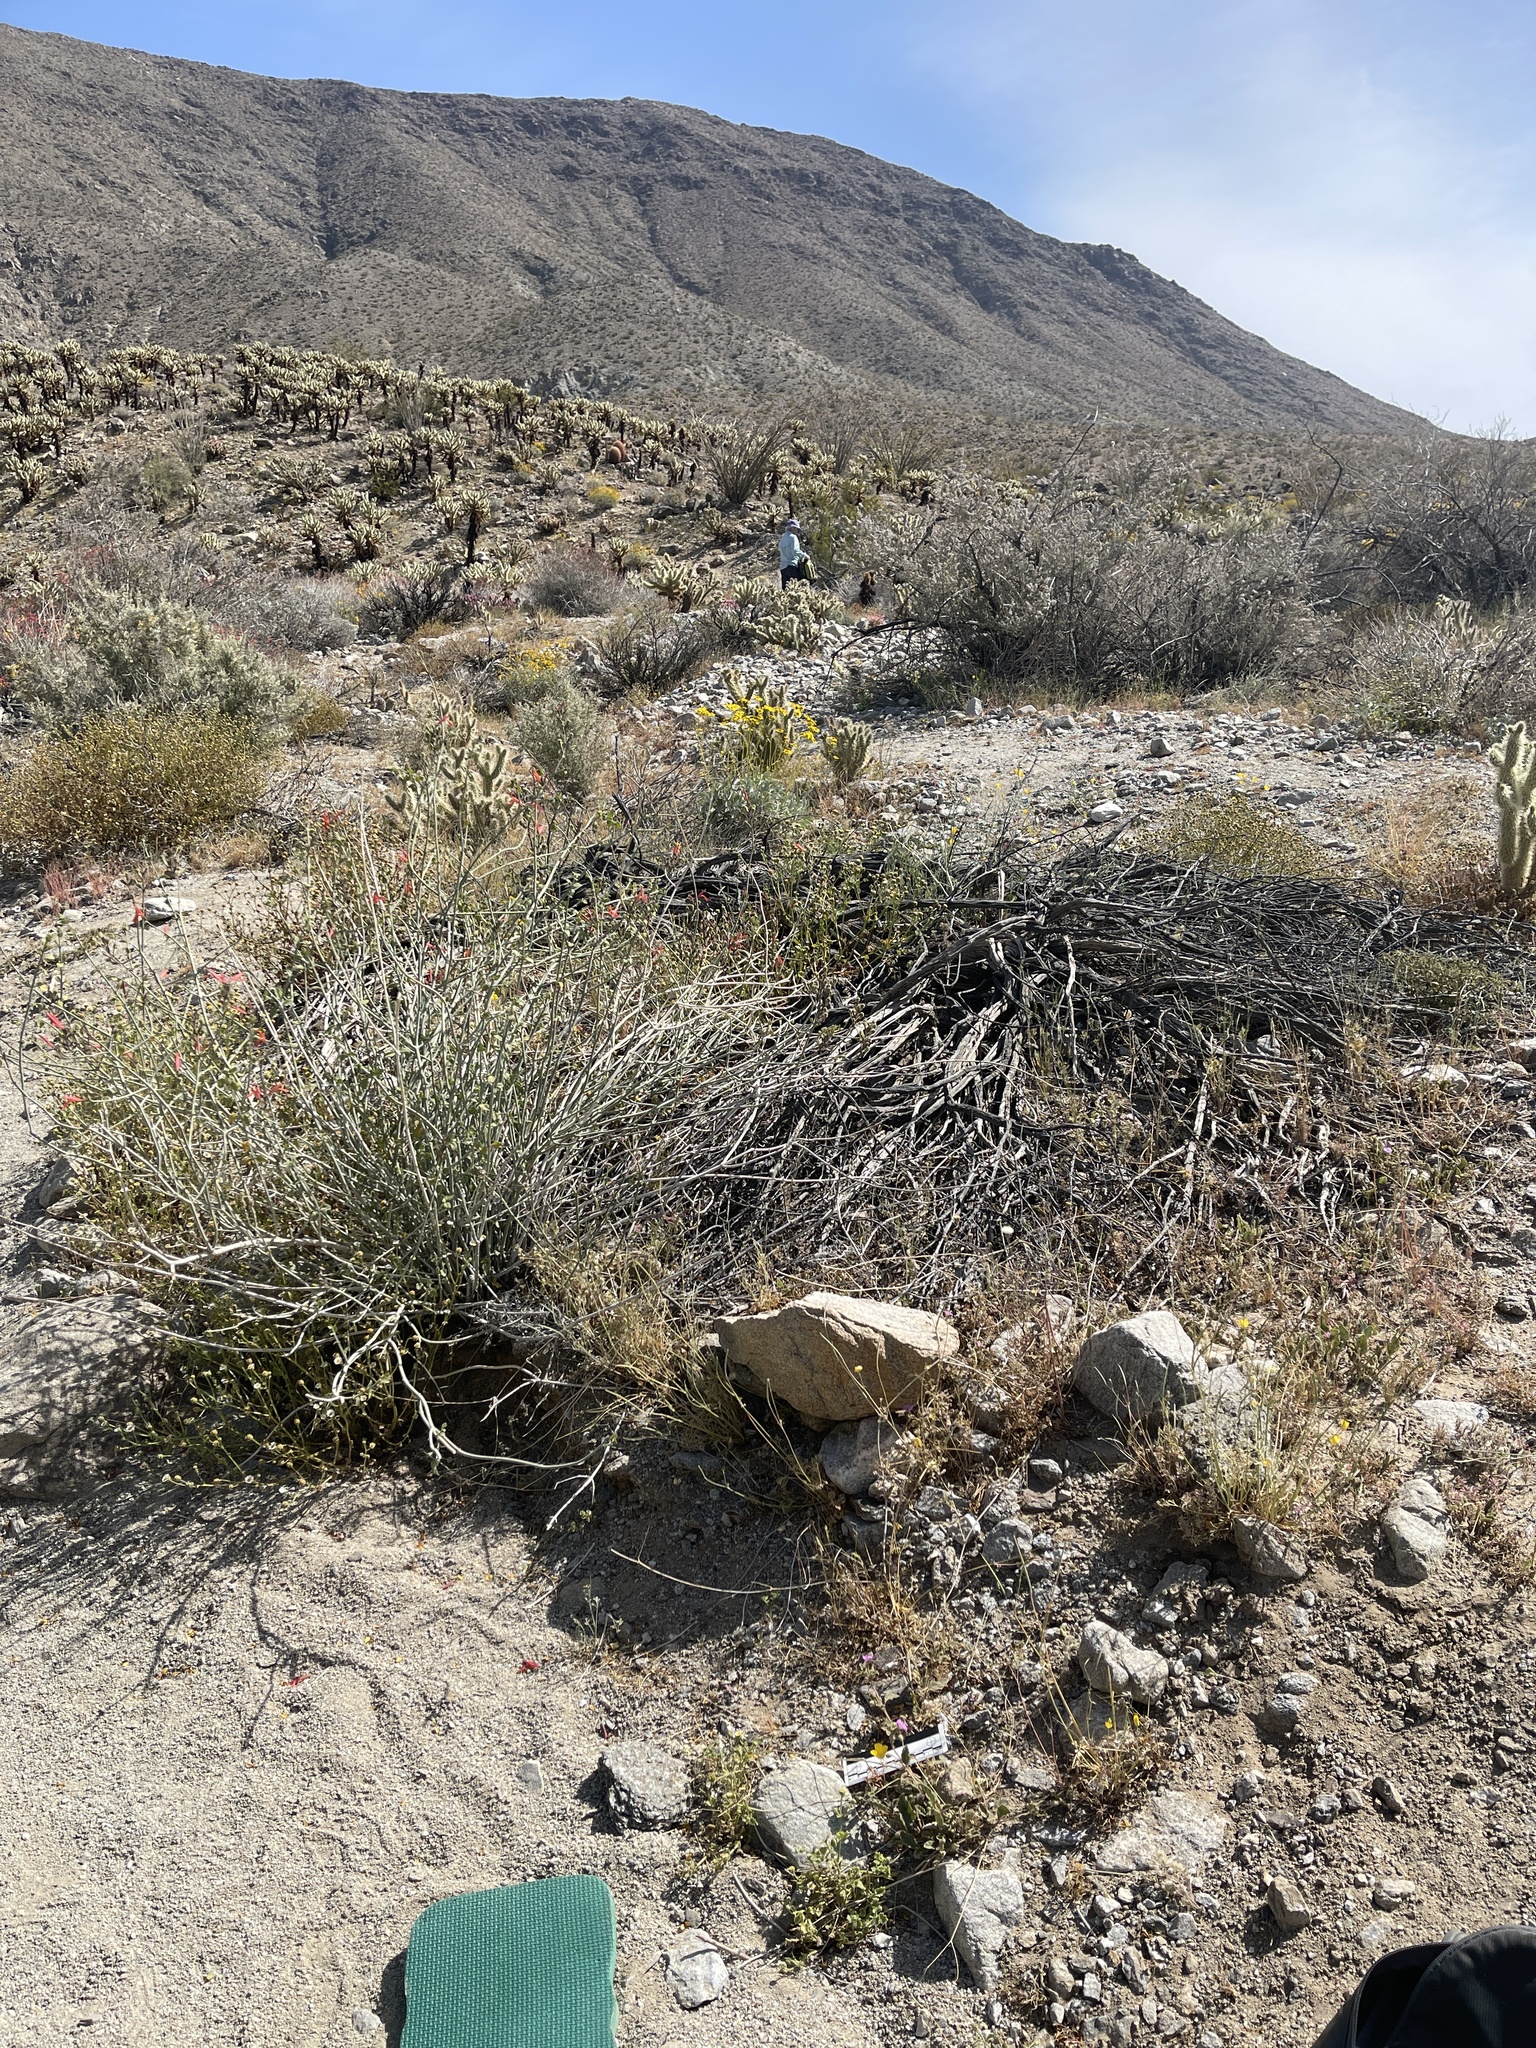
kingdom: Plantae
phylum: Tracheophyta
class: Magnoliopsida
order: Caryophyllales
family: Nyctaginaceae
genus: Allionia
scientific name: Allionia incarnata
